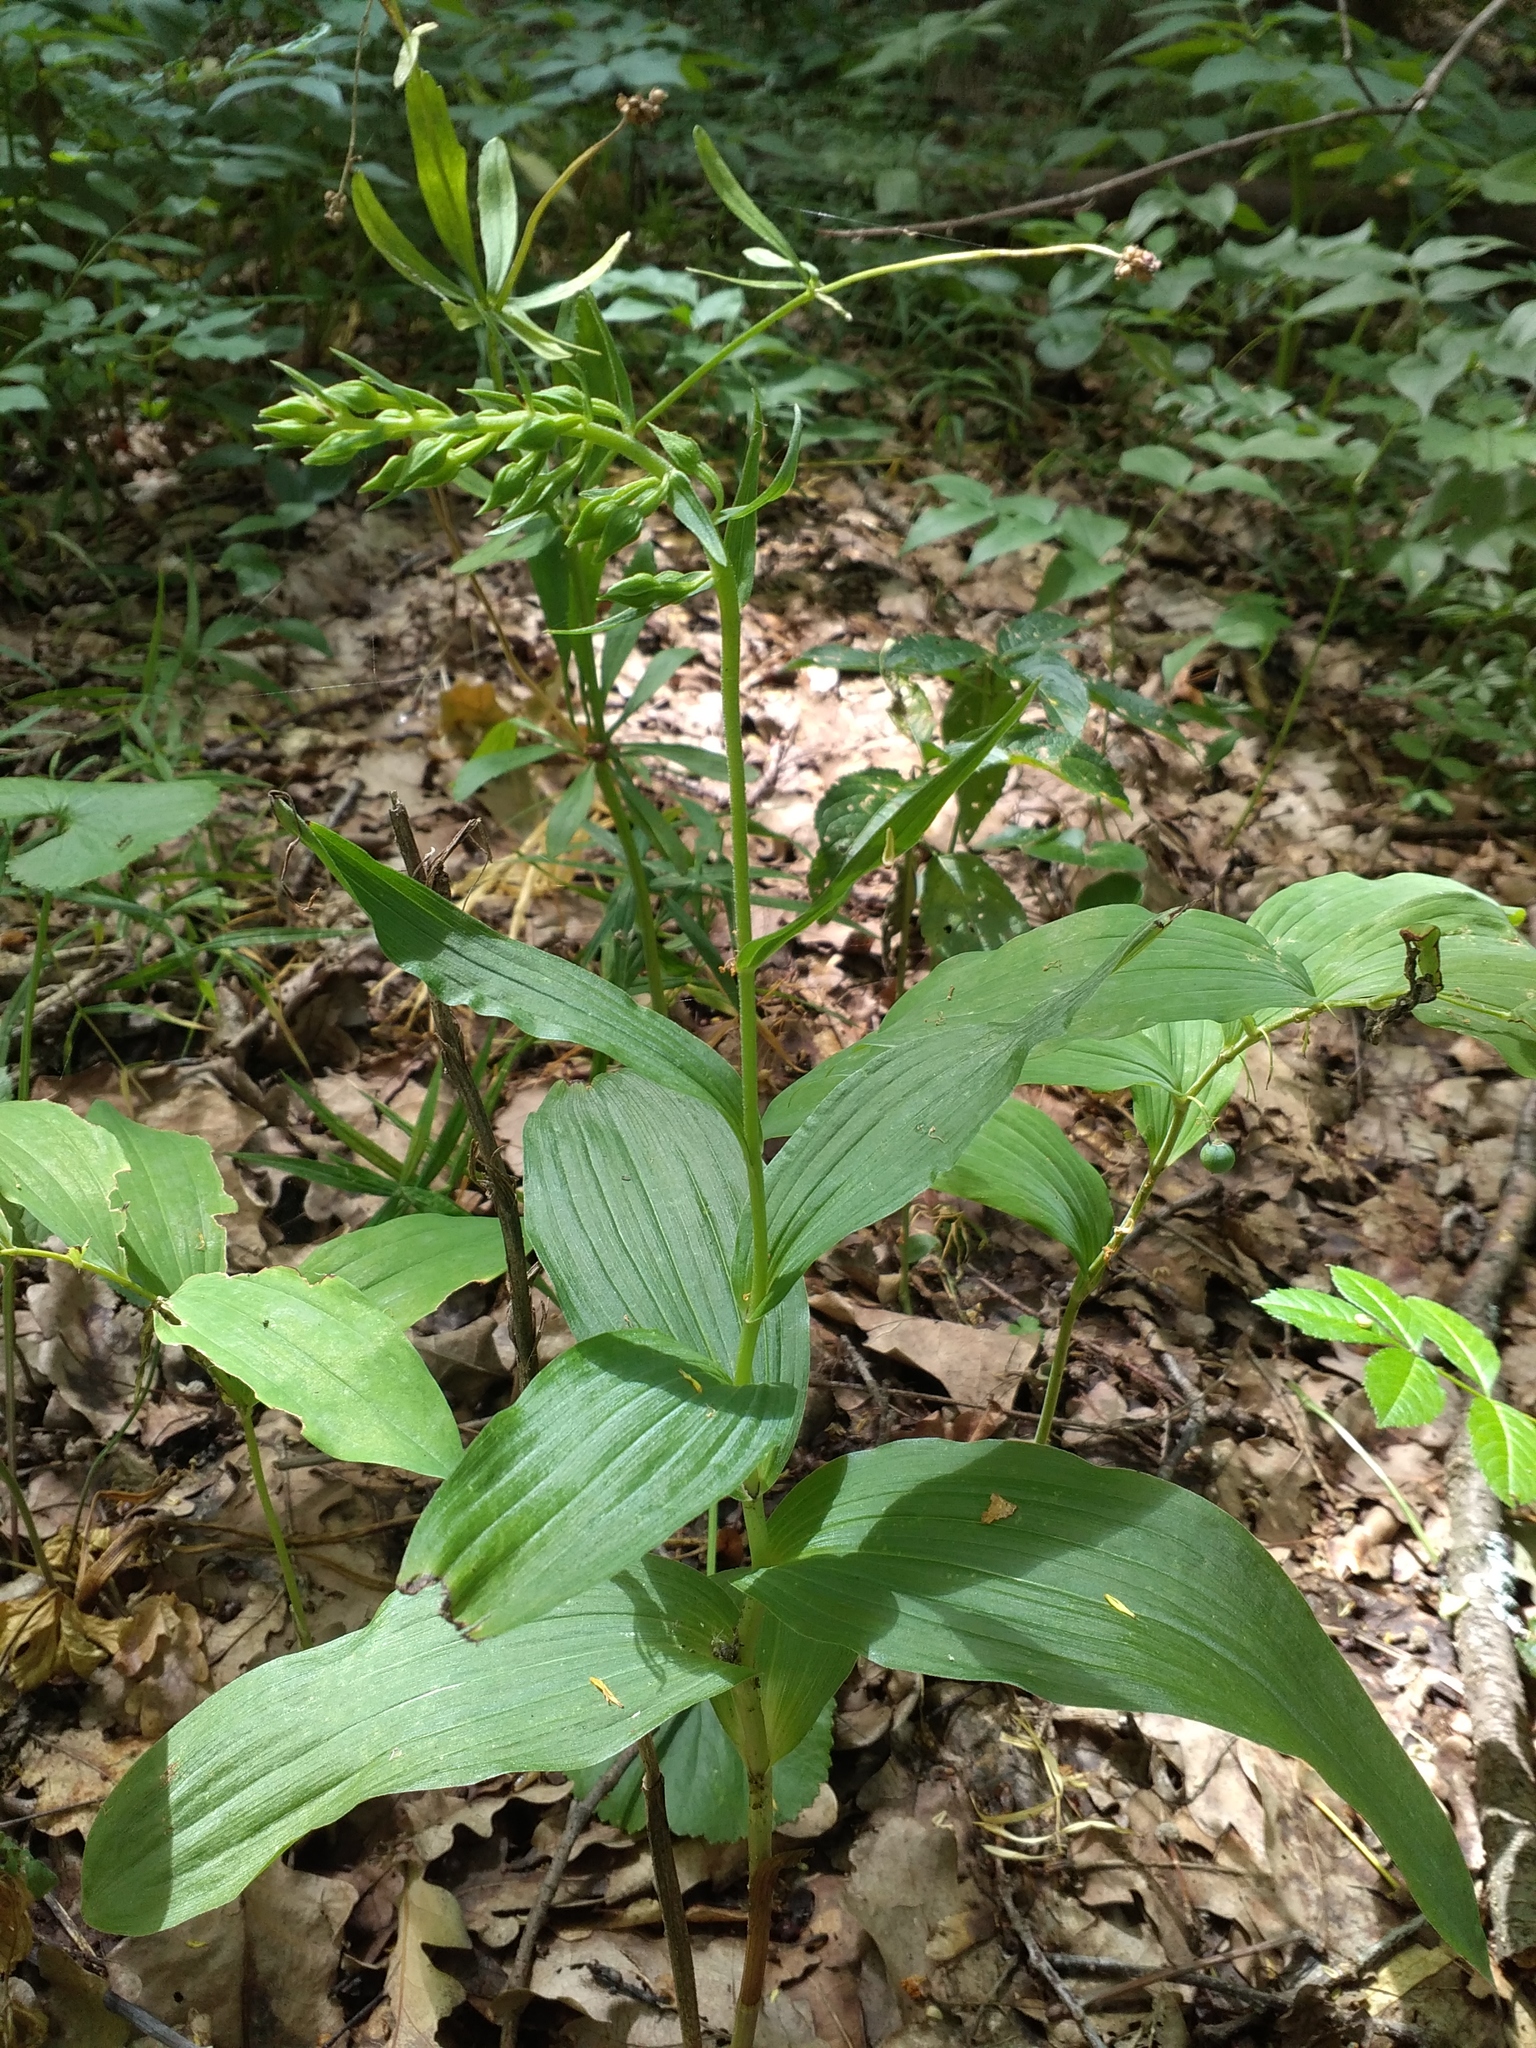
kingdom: Plantae
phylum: Tracheophyta
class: Liliopsida
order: Asparagales
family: Orchidaceae
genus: Epipactis
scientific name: Epipactis helleborine
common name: Broad-leaved helleborine
